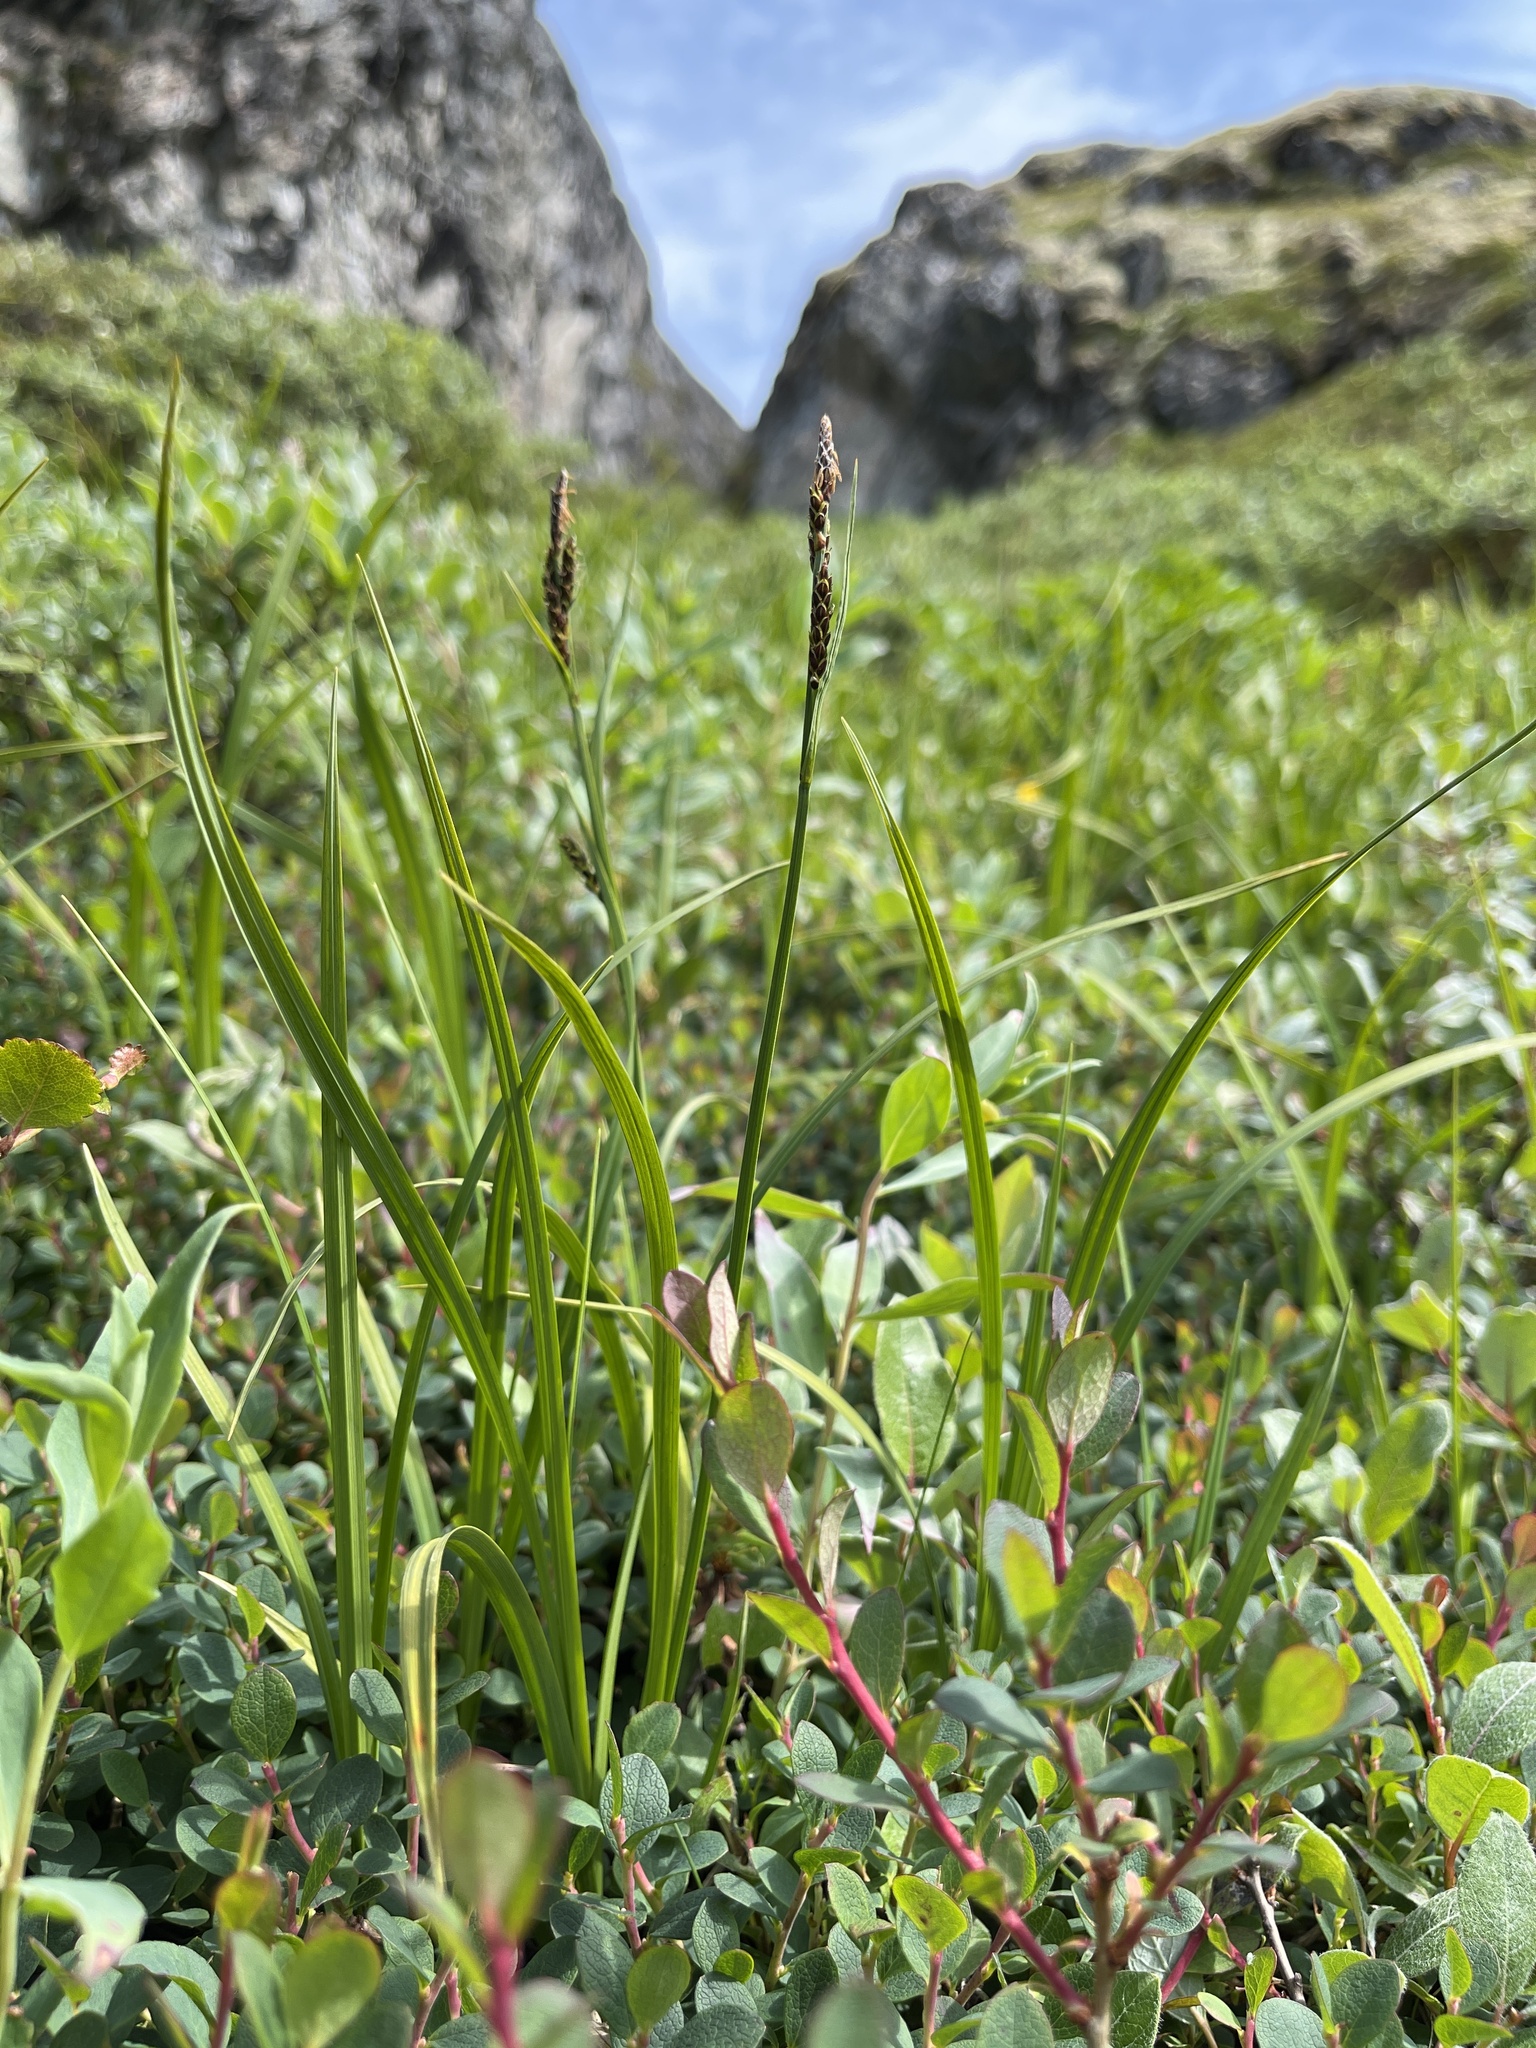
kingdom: Plantae
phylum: Tracheophyta
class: Liliopsida
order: Poales
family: Cyperaceae
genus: Carex
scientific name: Carex bigelowii
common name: Stiff sedge
